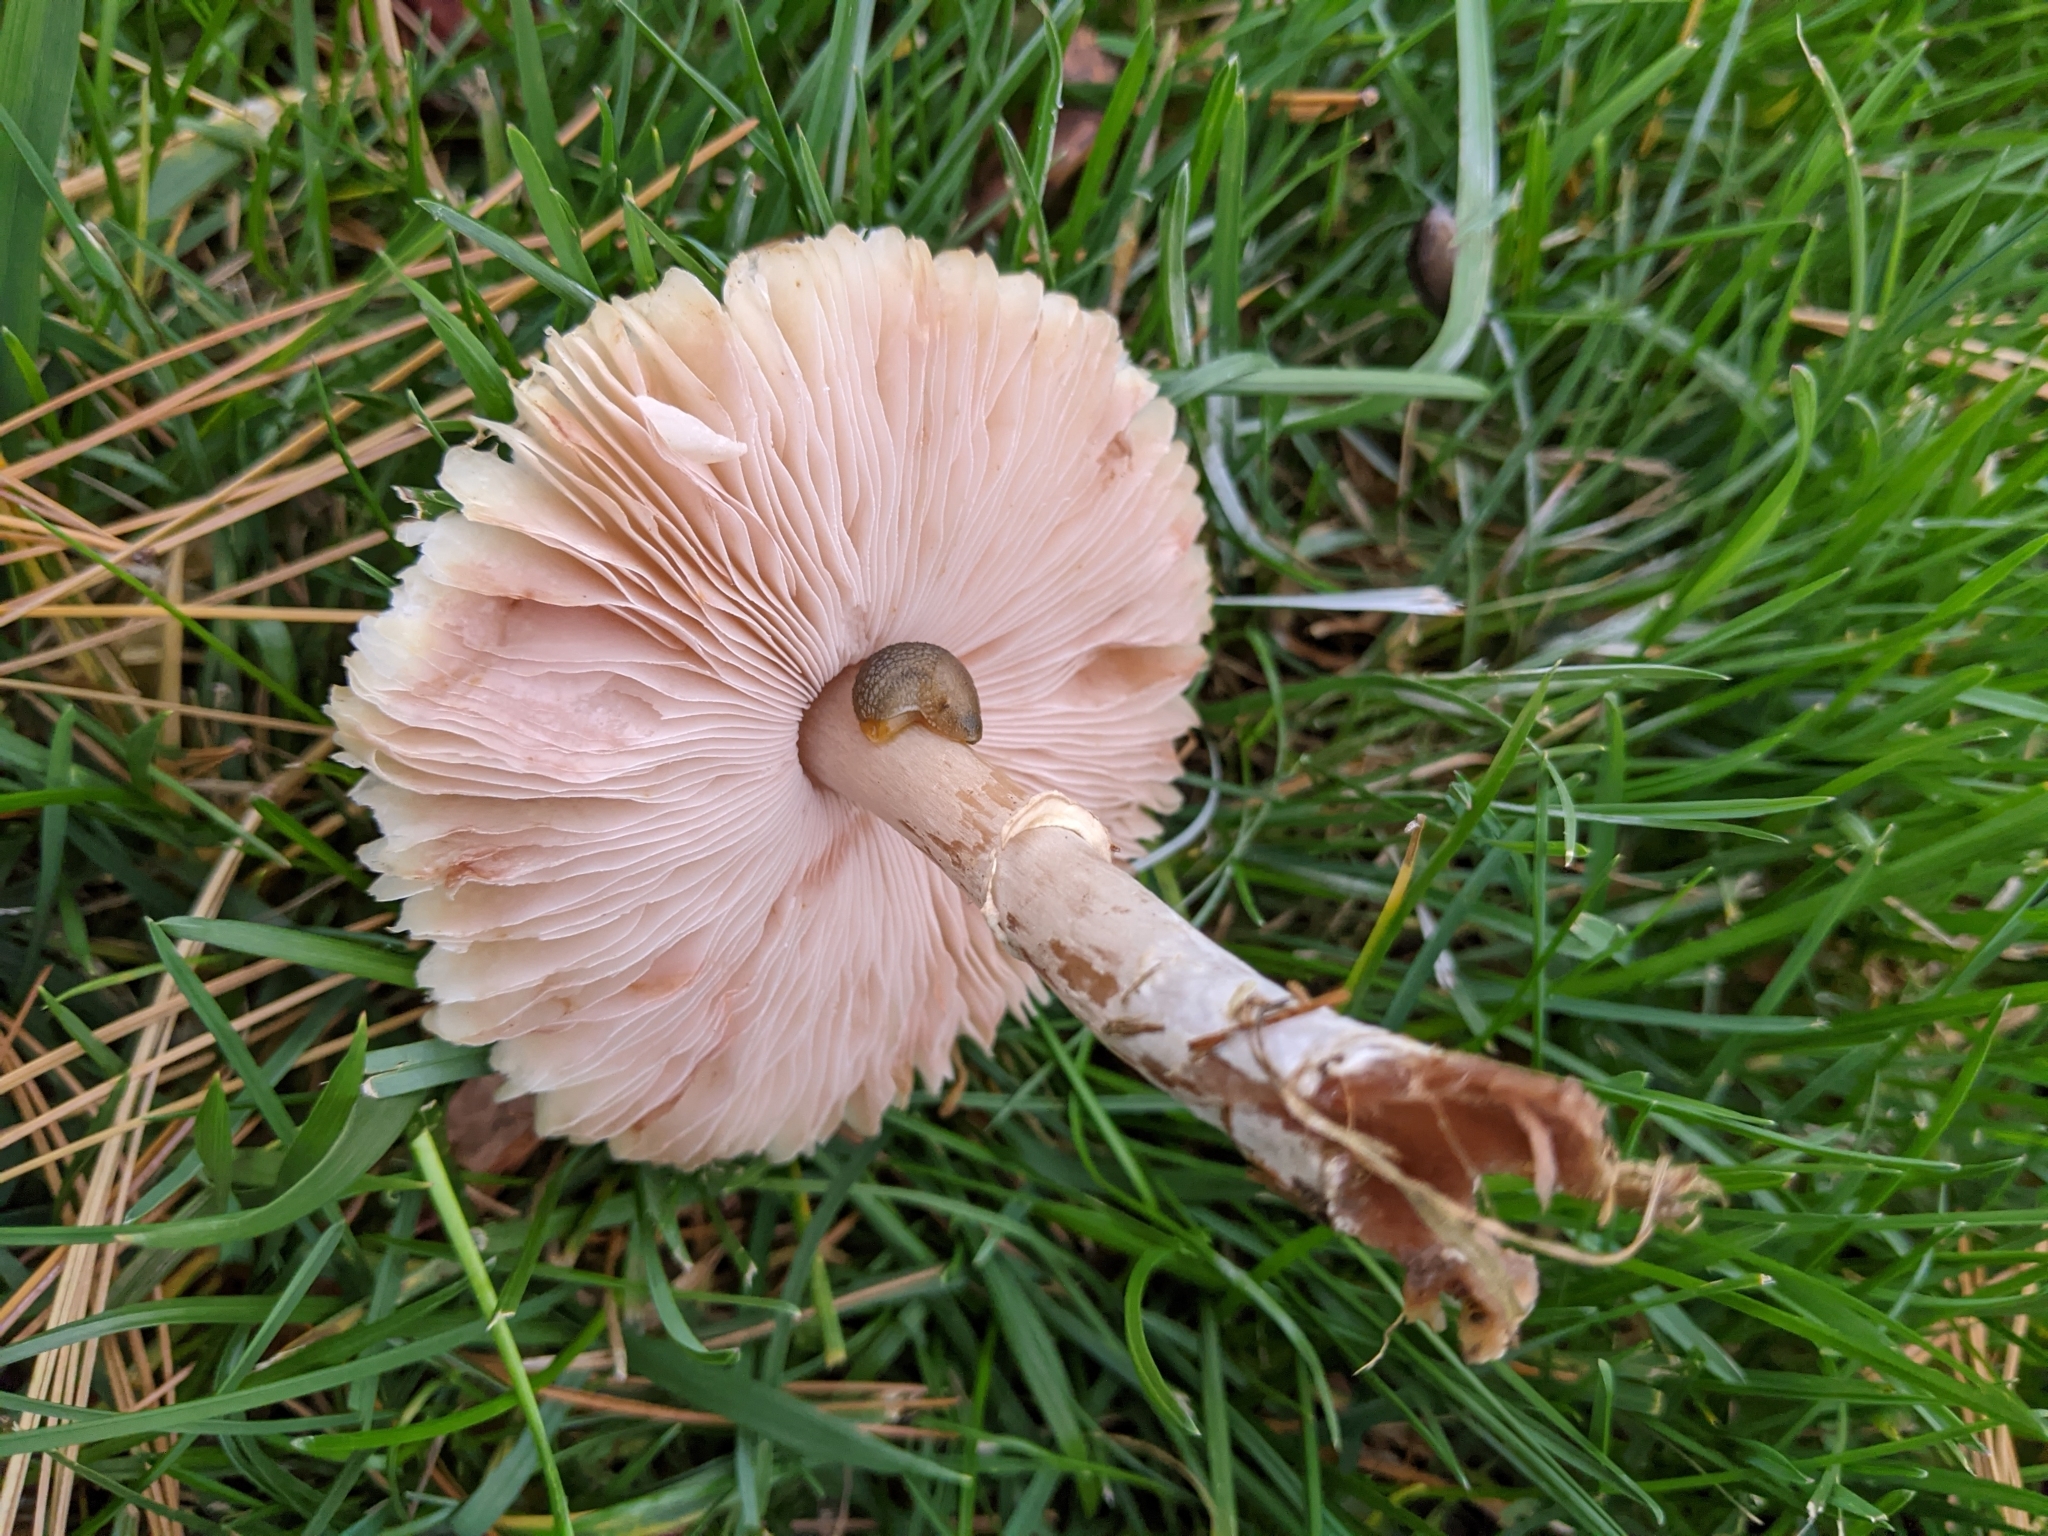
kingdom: Animalia
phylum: Mollusca
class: Gastropoda
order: Stylommatophora
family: Arionidae
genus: Arion
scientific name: Arion intermedius
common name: Hedgehog slug
